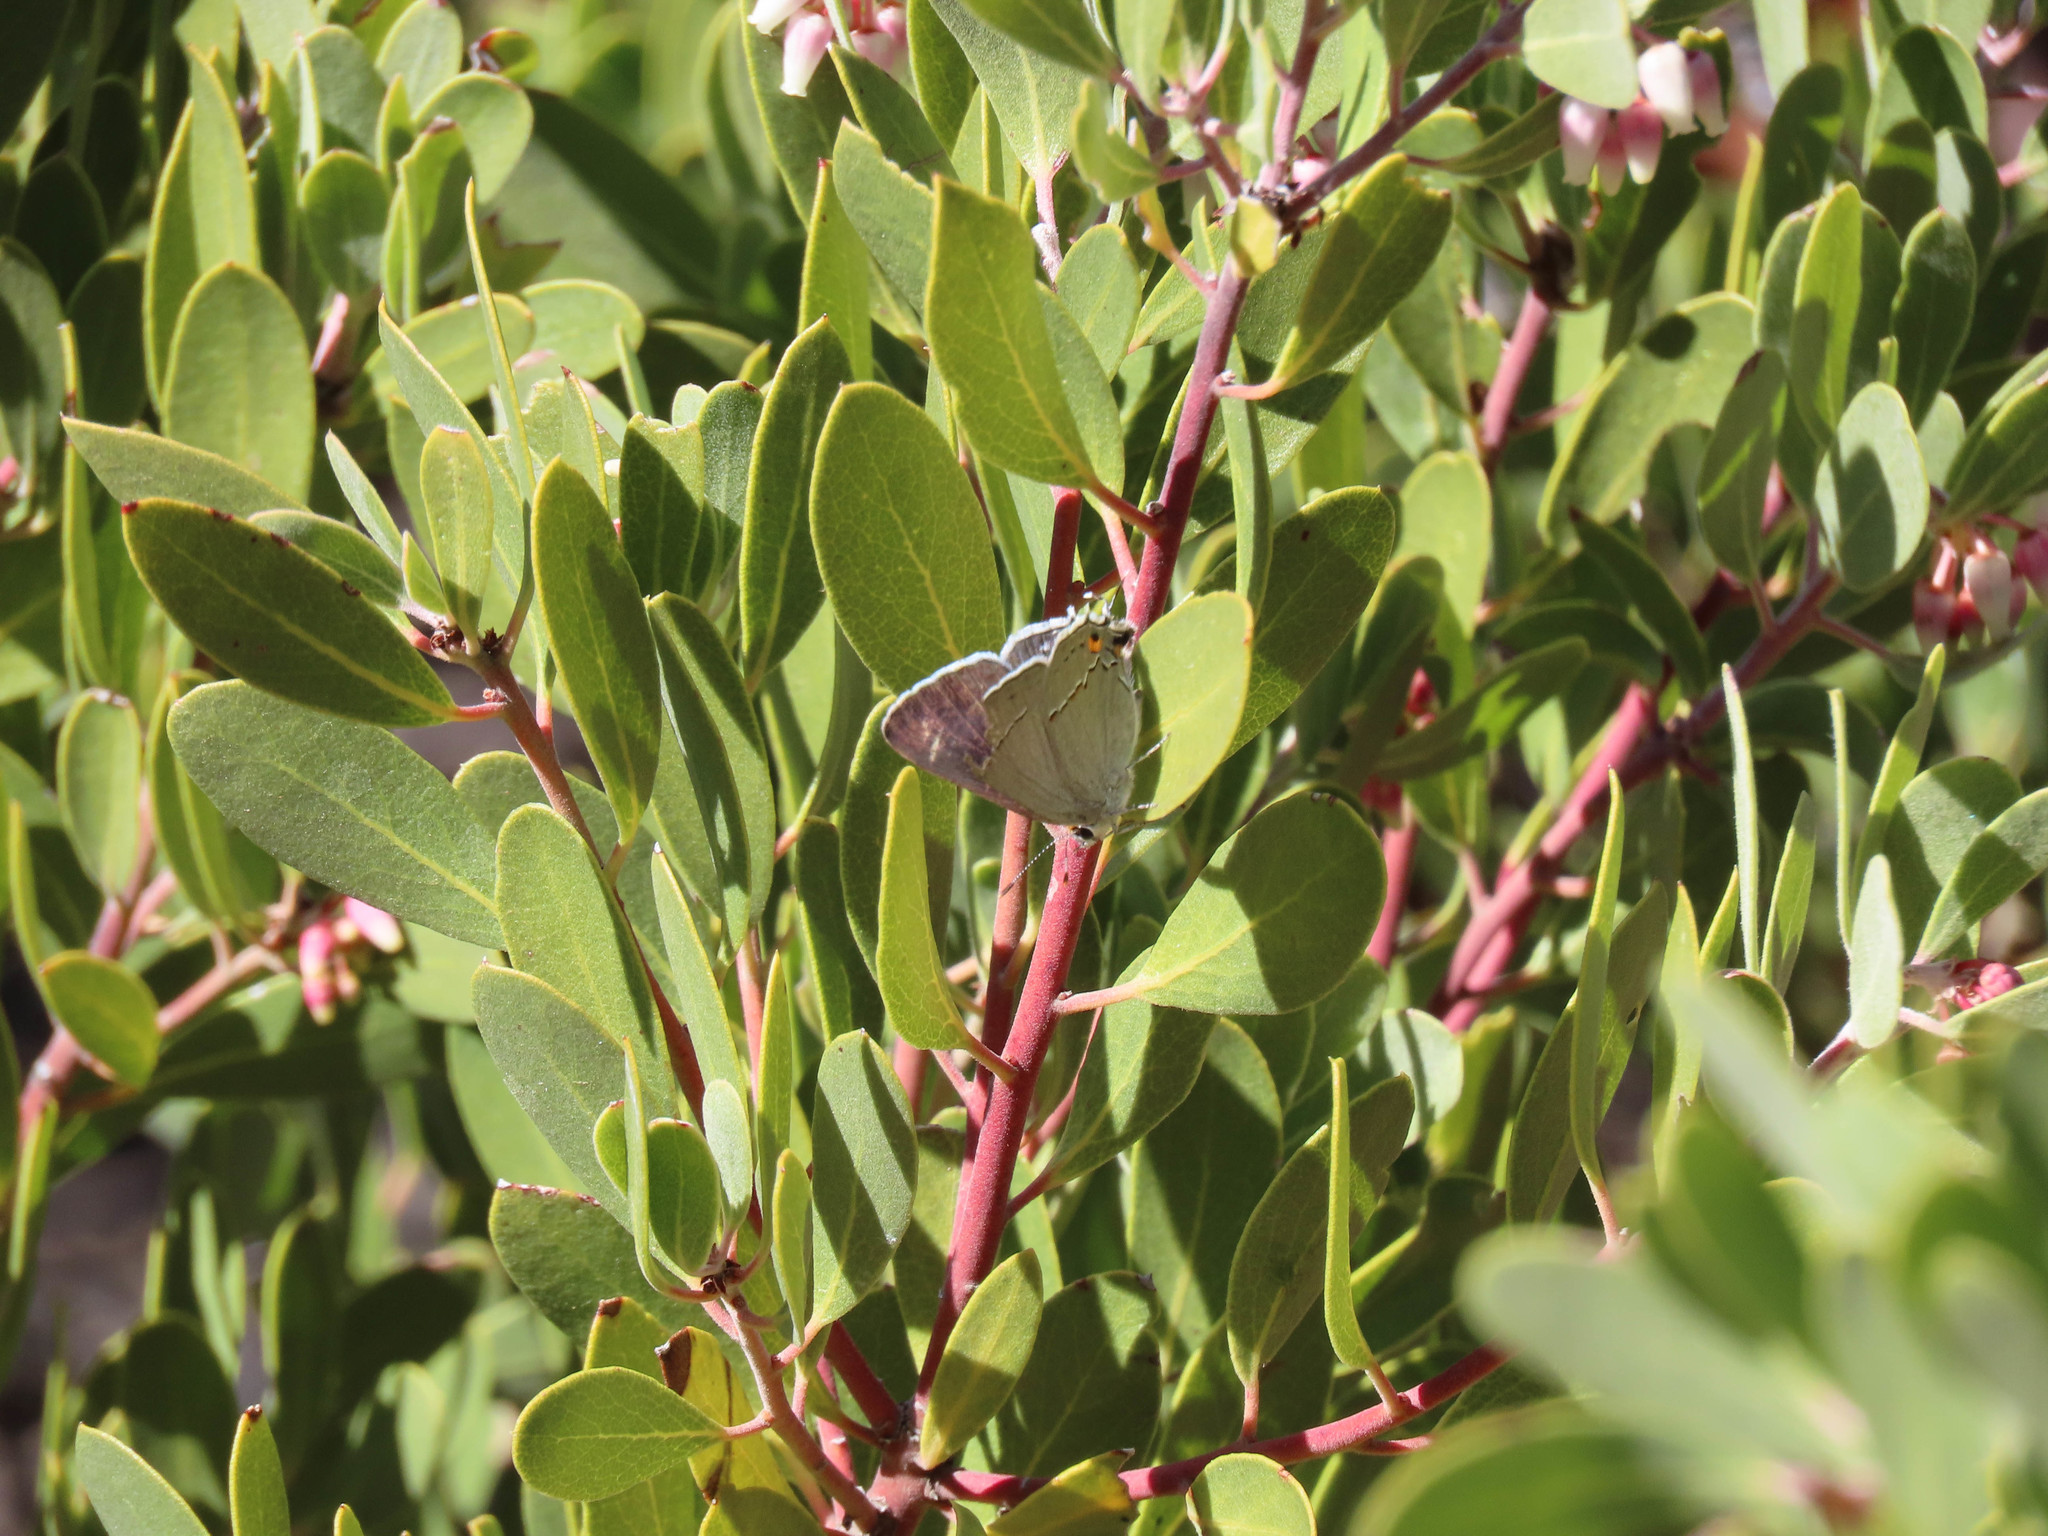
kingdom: Animalia
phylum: Arthropoda
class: Insecta
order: Lepidoptera
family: Lycaenidae
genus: Strymon
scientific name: Strymon melinus
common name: Gray hairstreak
